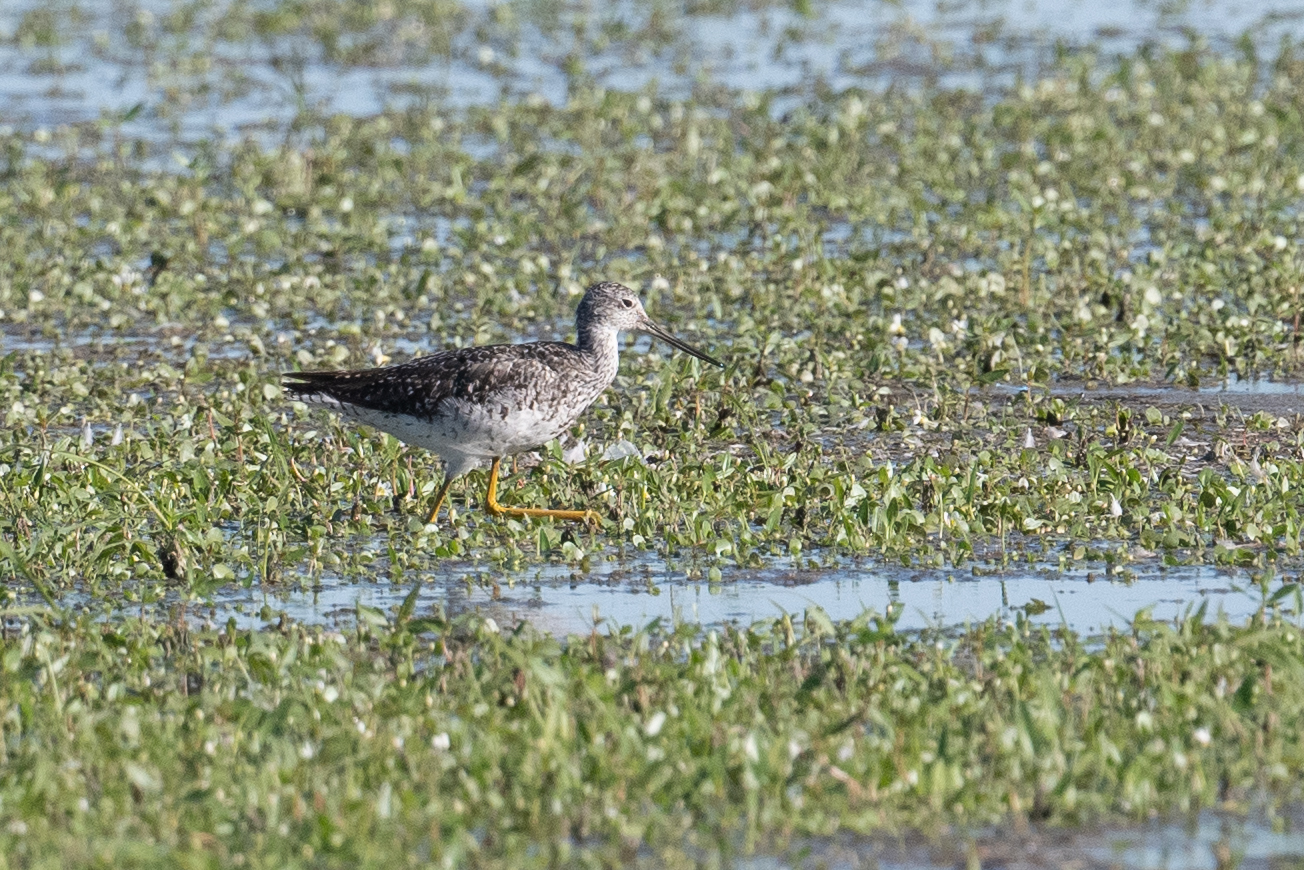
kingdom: Animalia
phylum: Chordata
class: Aves
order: Charadriiformes
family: Scolopacidae
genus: Tringa
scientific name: Tringa melanoleuca
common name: Greater yellowlegs
